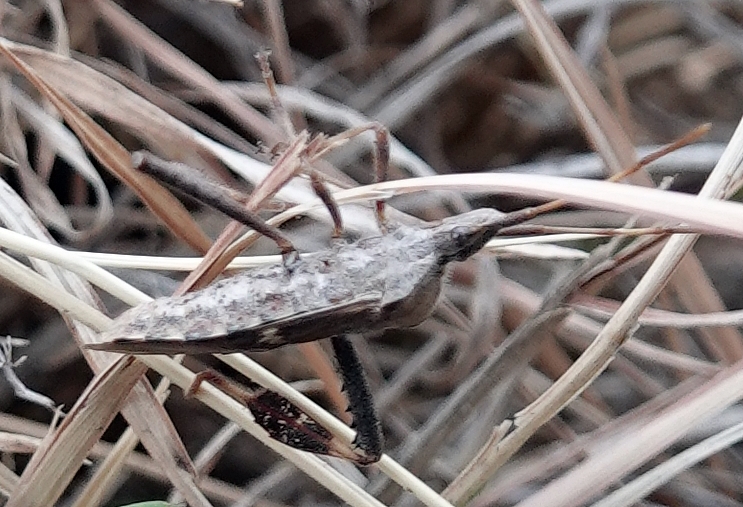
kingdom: Animalia
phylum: Arthropoda
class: Insecta
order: Hemiptera
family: Coreidae
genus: Leptoglossus
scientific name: Leptoglossus clypealis
